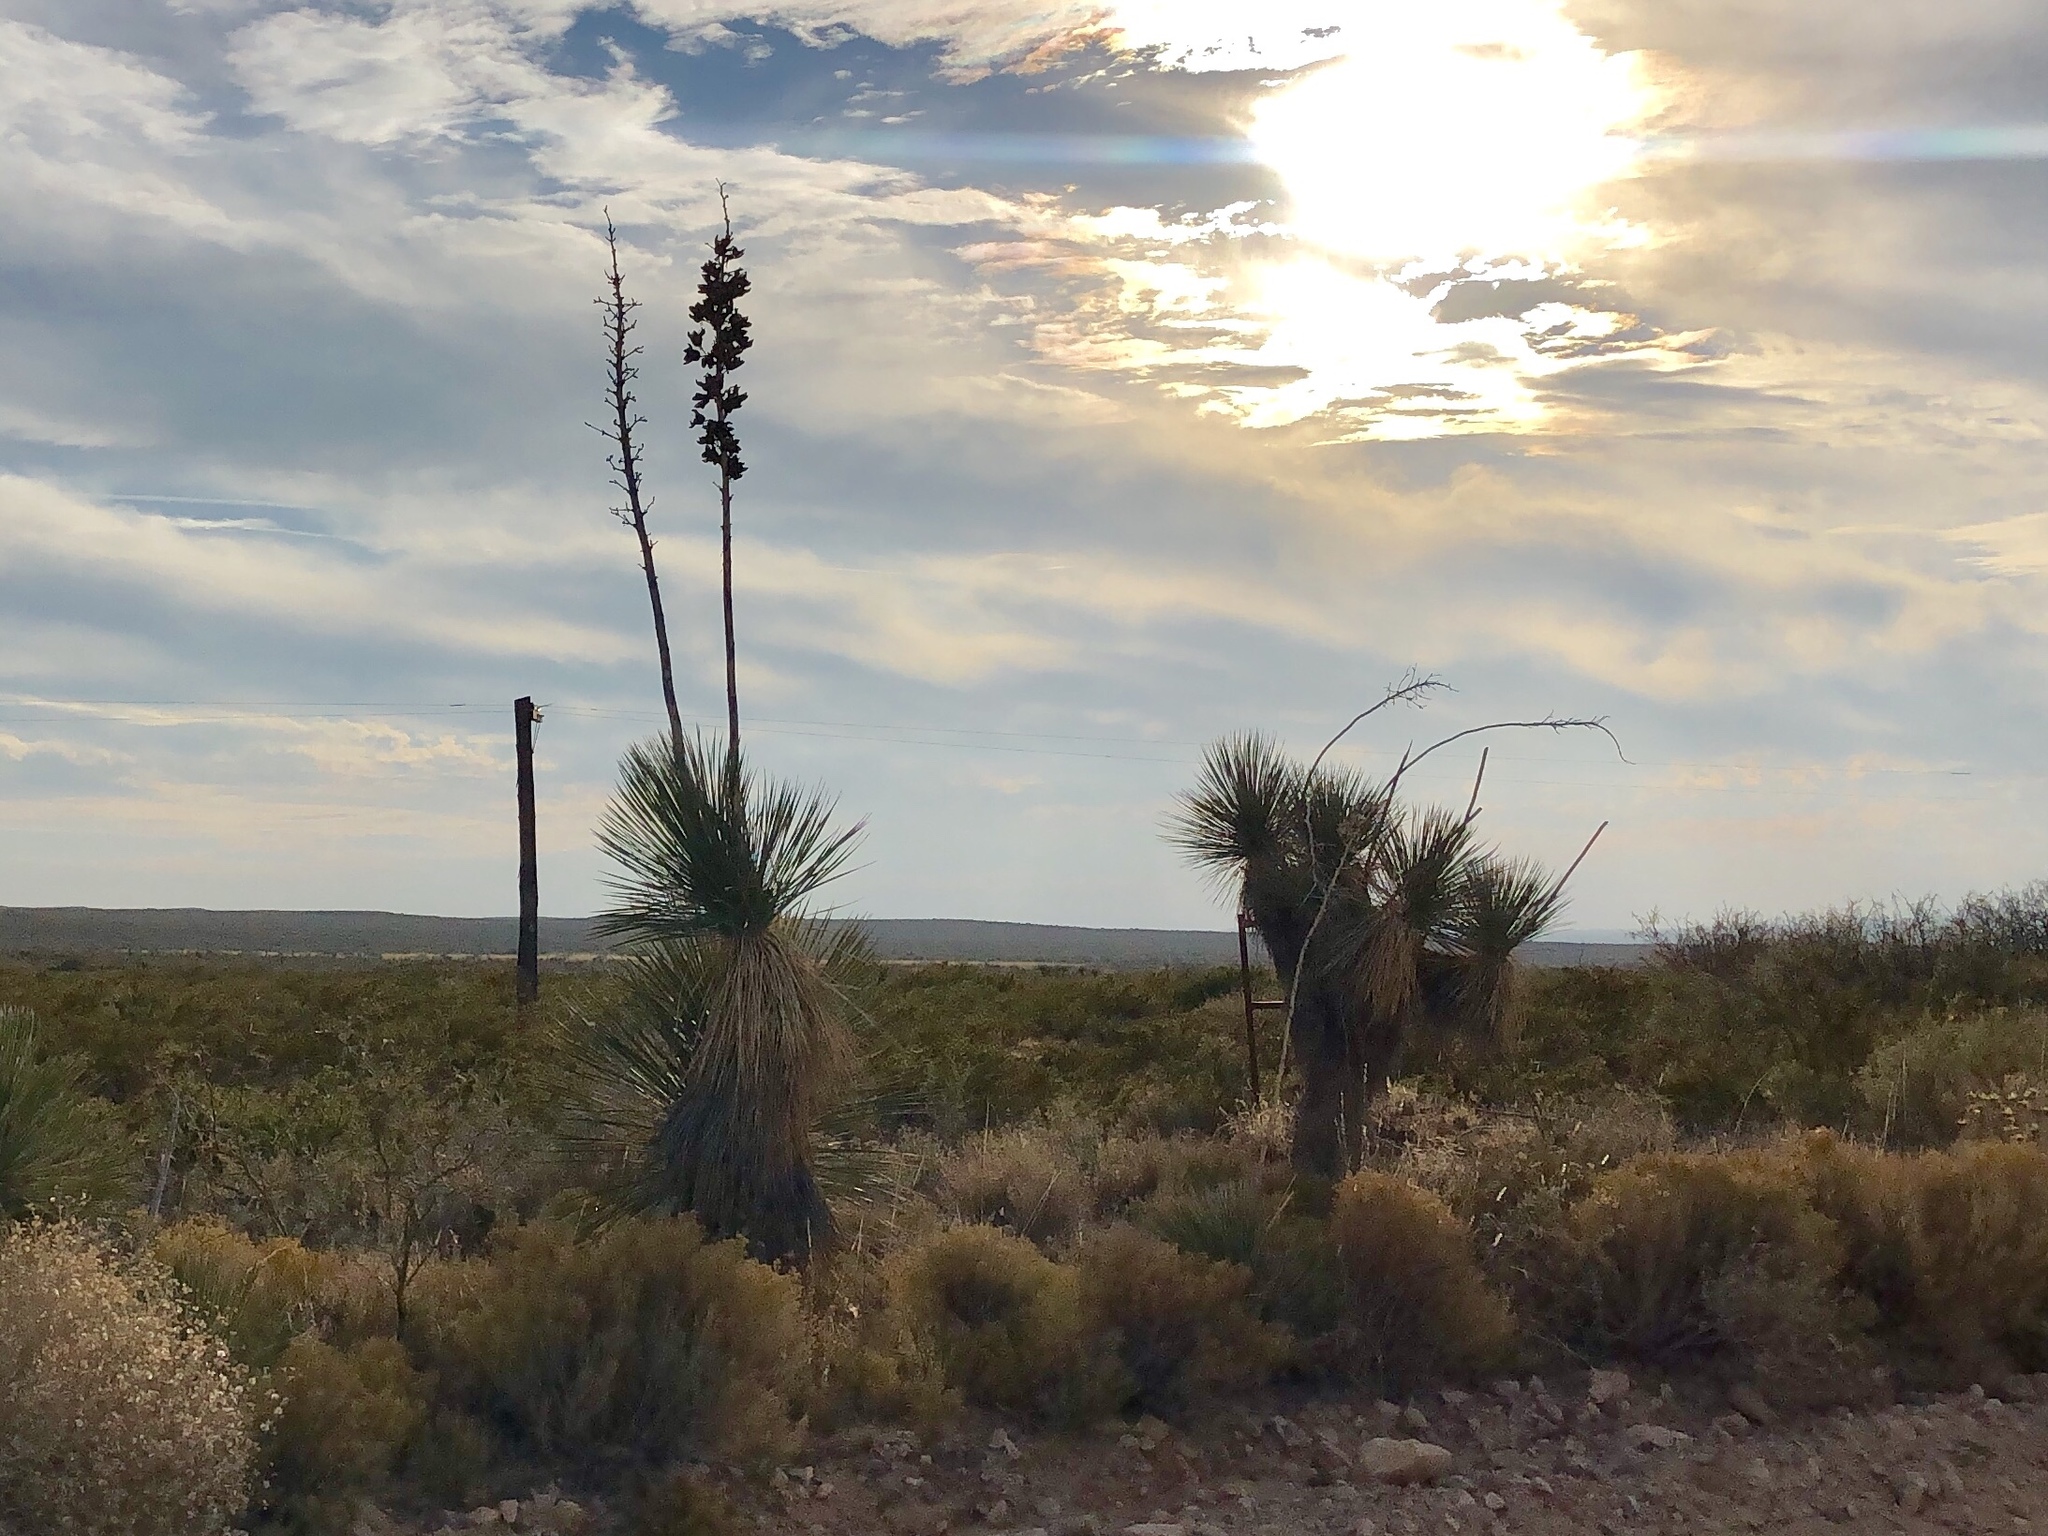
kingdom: Plantae
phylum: Tracheophyta
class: Liliopsida
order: Asparagales
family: Asparagaceae
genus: Yucca
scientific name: Yucca elata
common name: Palmella
